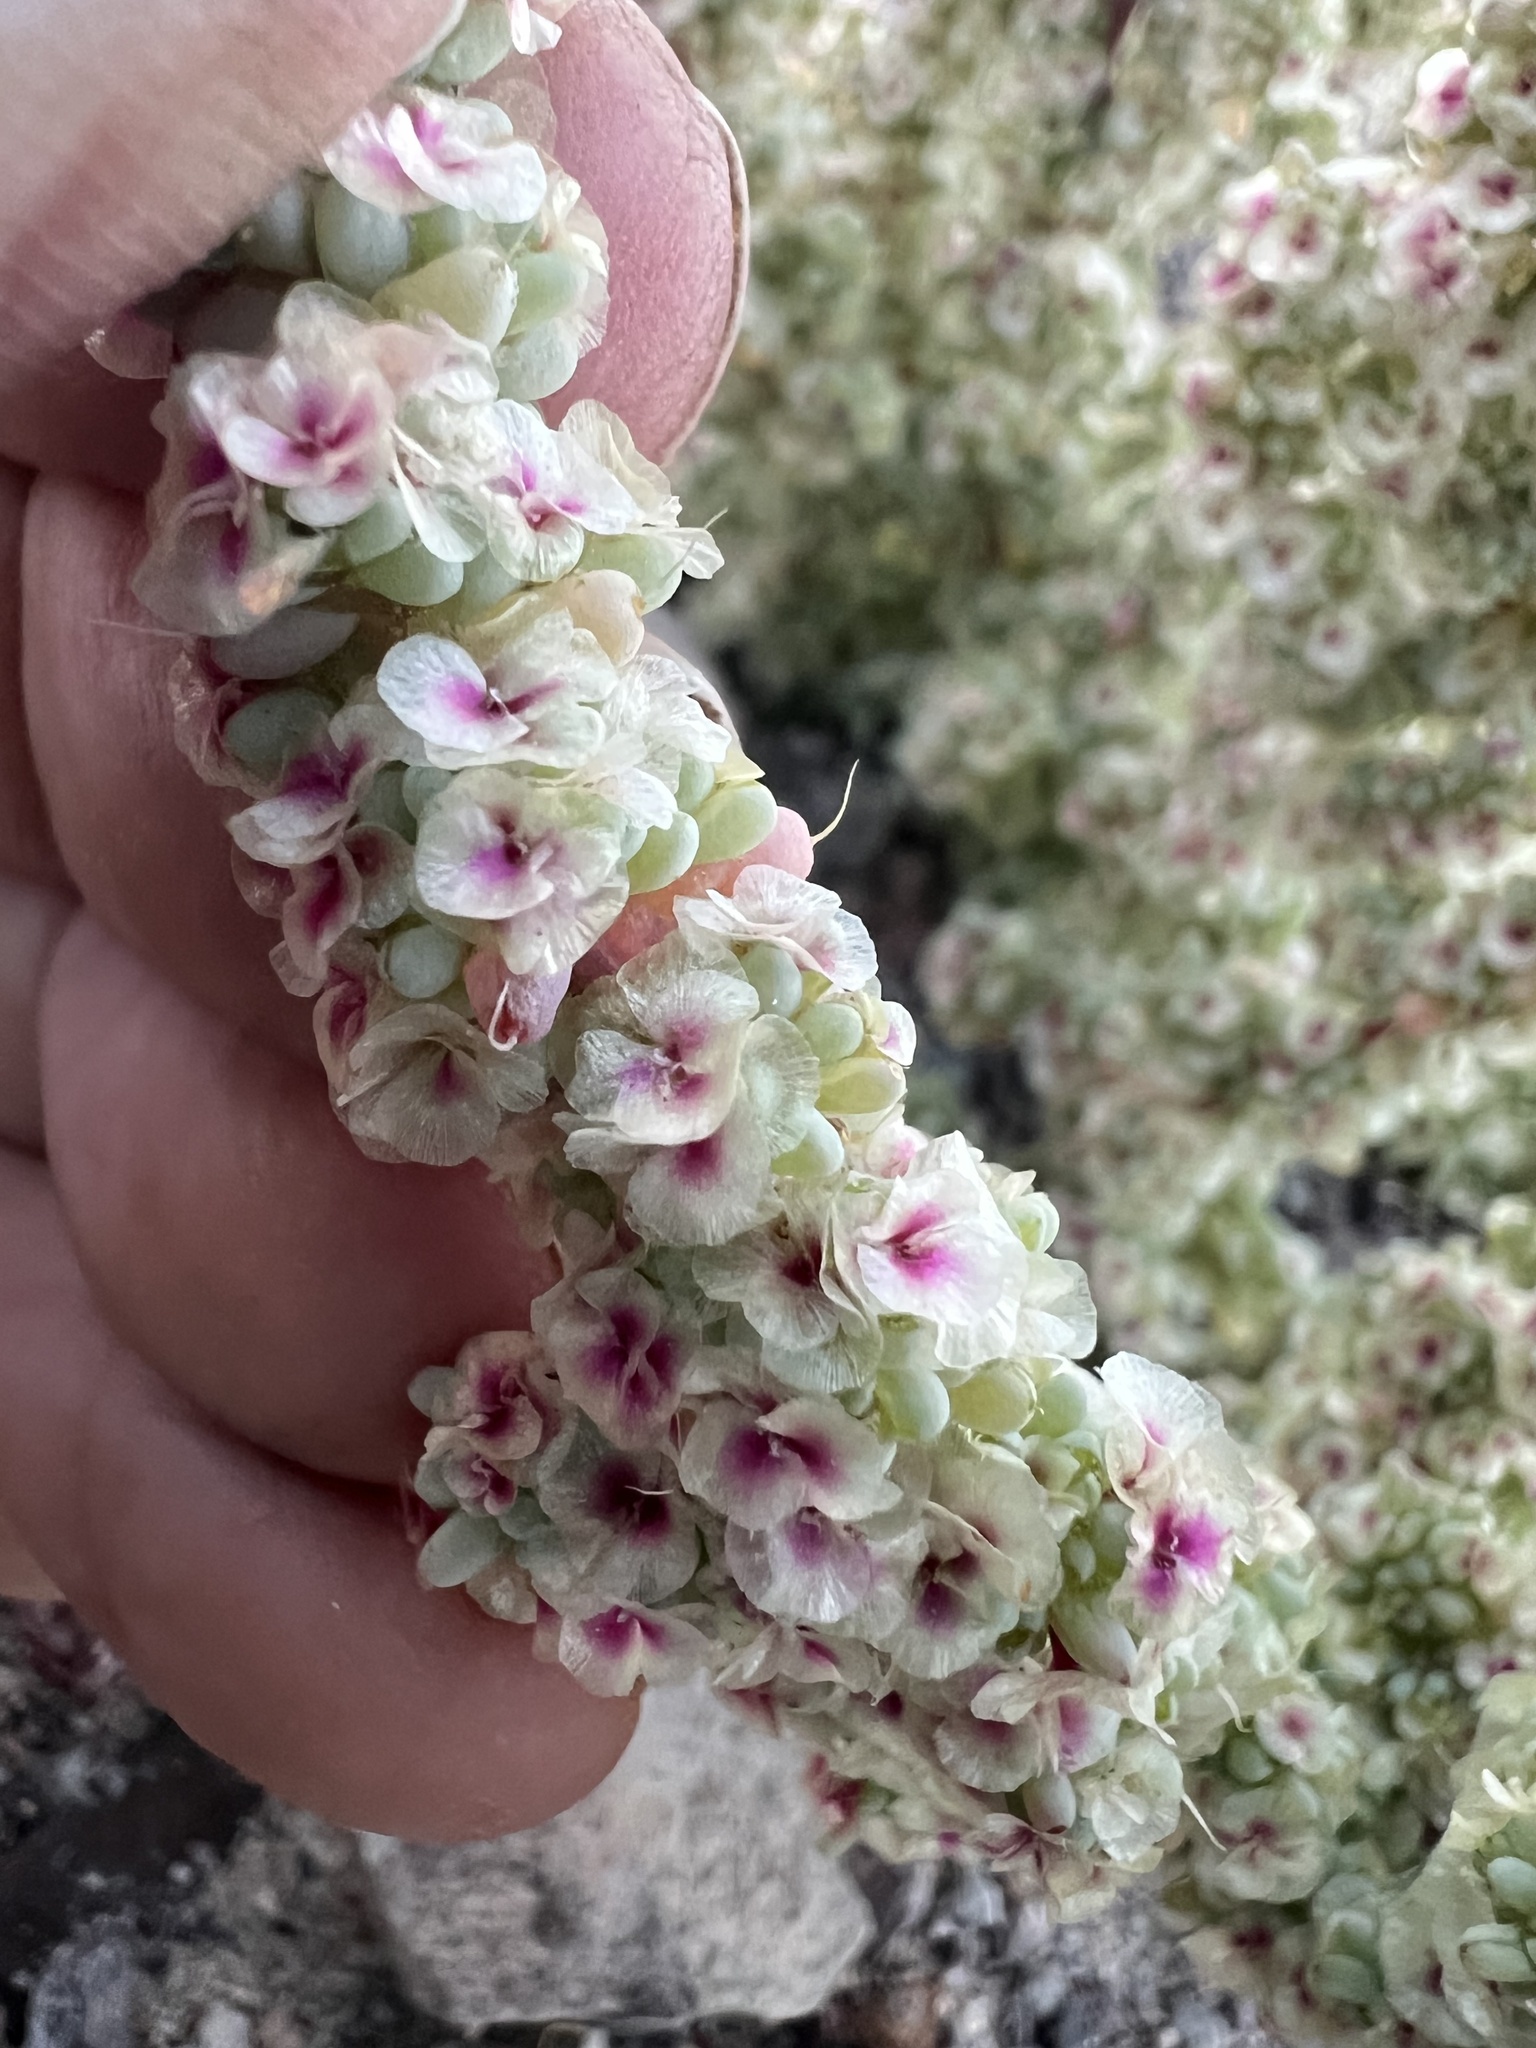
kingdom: Plantae
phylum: Tracheophyta
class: Magnoliopsida
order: Caryophyllales
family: Amaranthaceae
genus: Halogeton
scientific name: Halogeton glomeratus
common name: Saltlover
